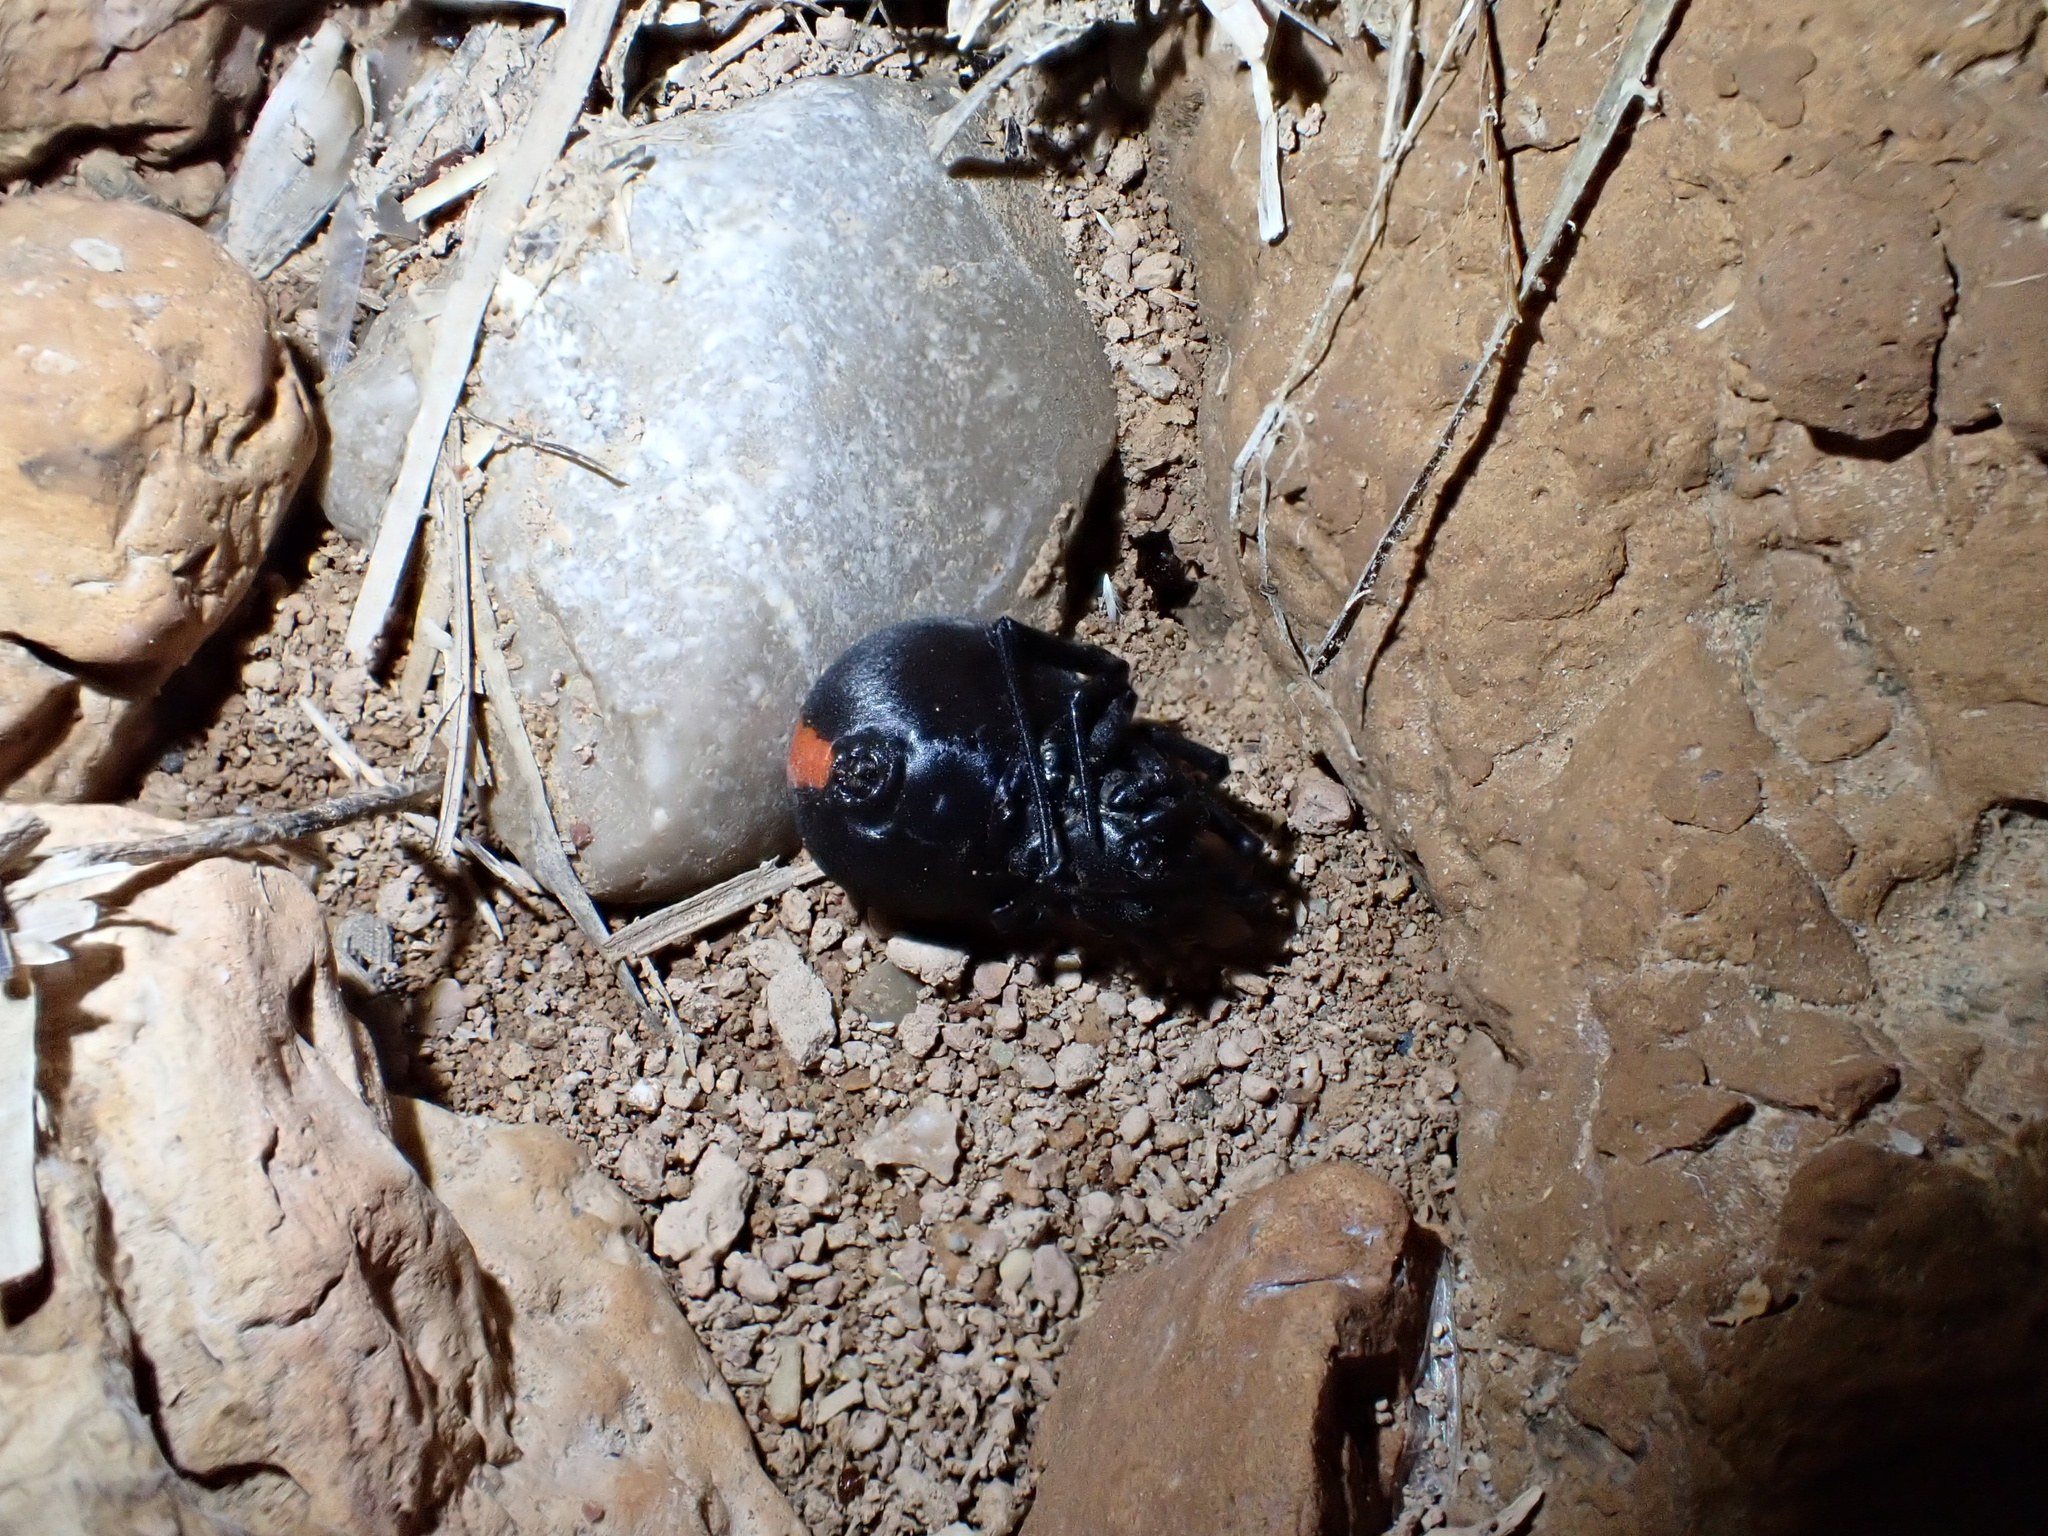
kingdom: Animalia
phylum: Arthropoda
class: Arachnida
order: Araneae
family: Theridiidae
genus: Latrodectus
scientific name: Latrodectus cinctus
